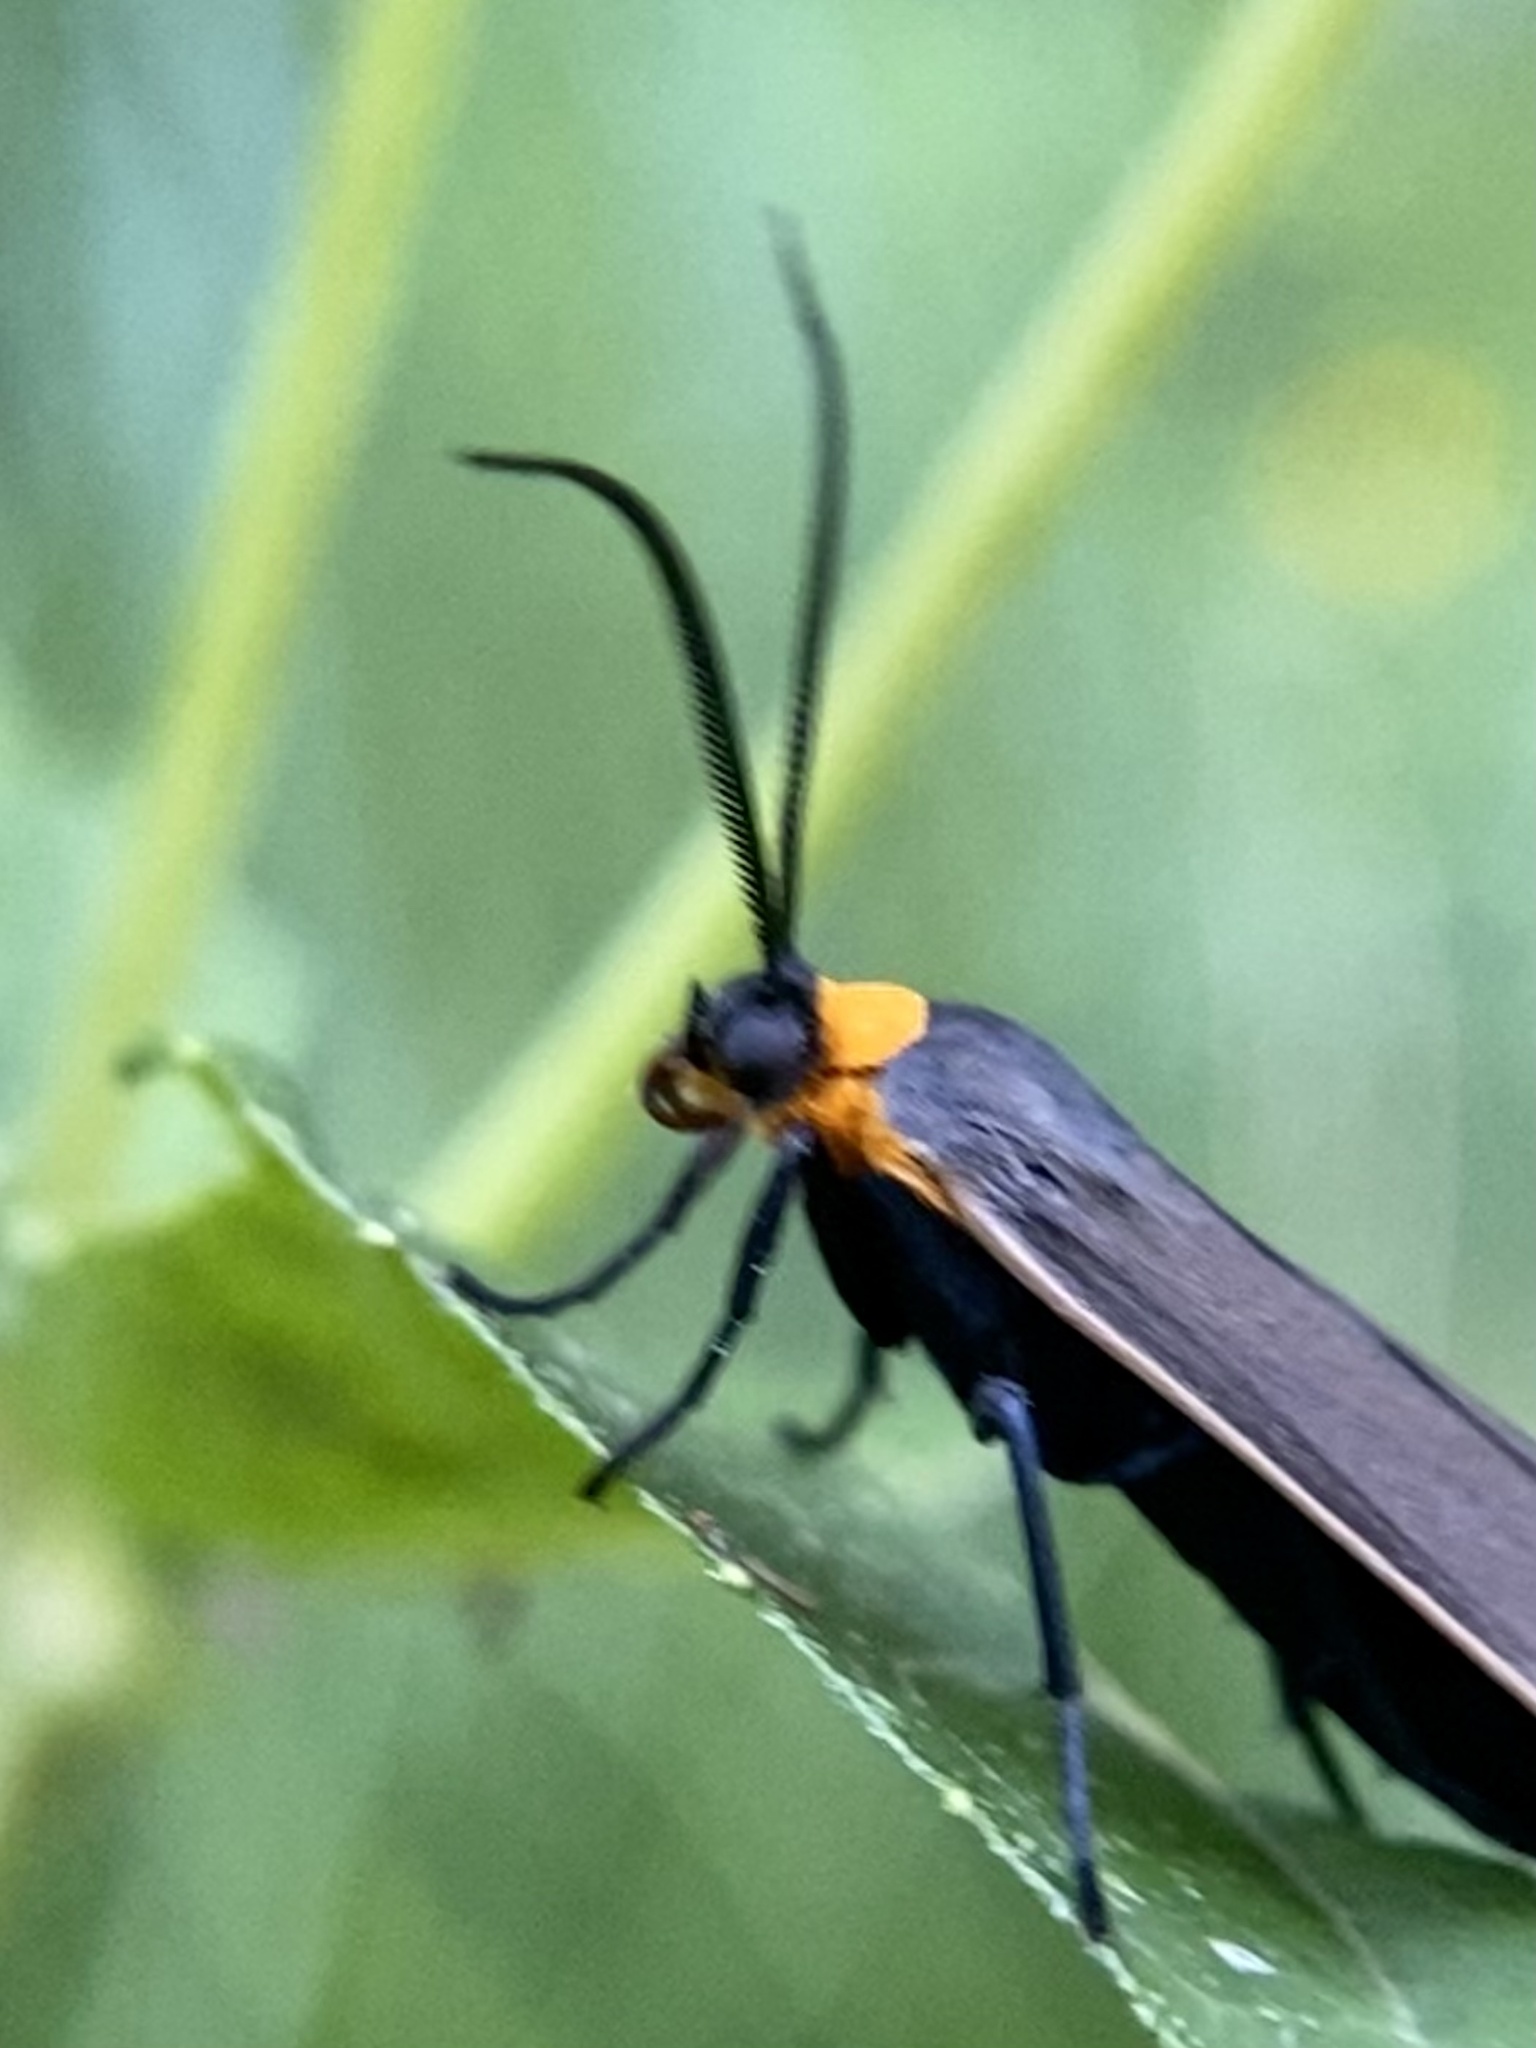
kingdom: Animalia
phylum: Arthropoda
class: Insecta
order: Lepidoptera
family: Erebidae
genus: Cisseps
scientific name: Cisseps fulvicollis
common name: Yellow-collared scape moth
